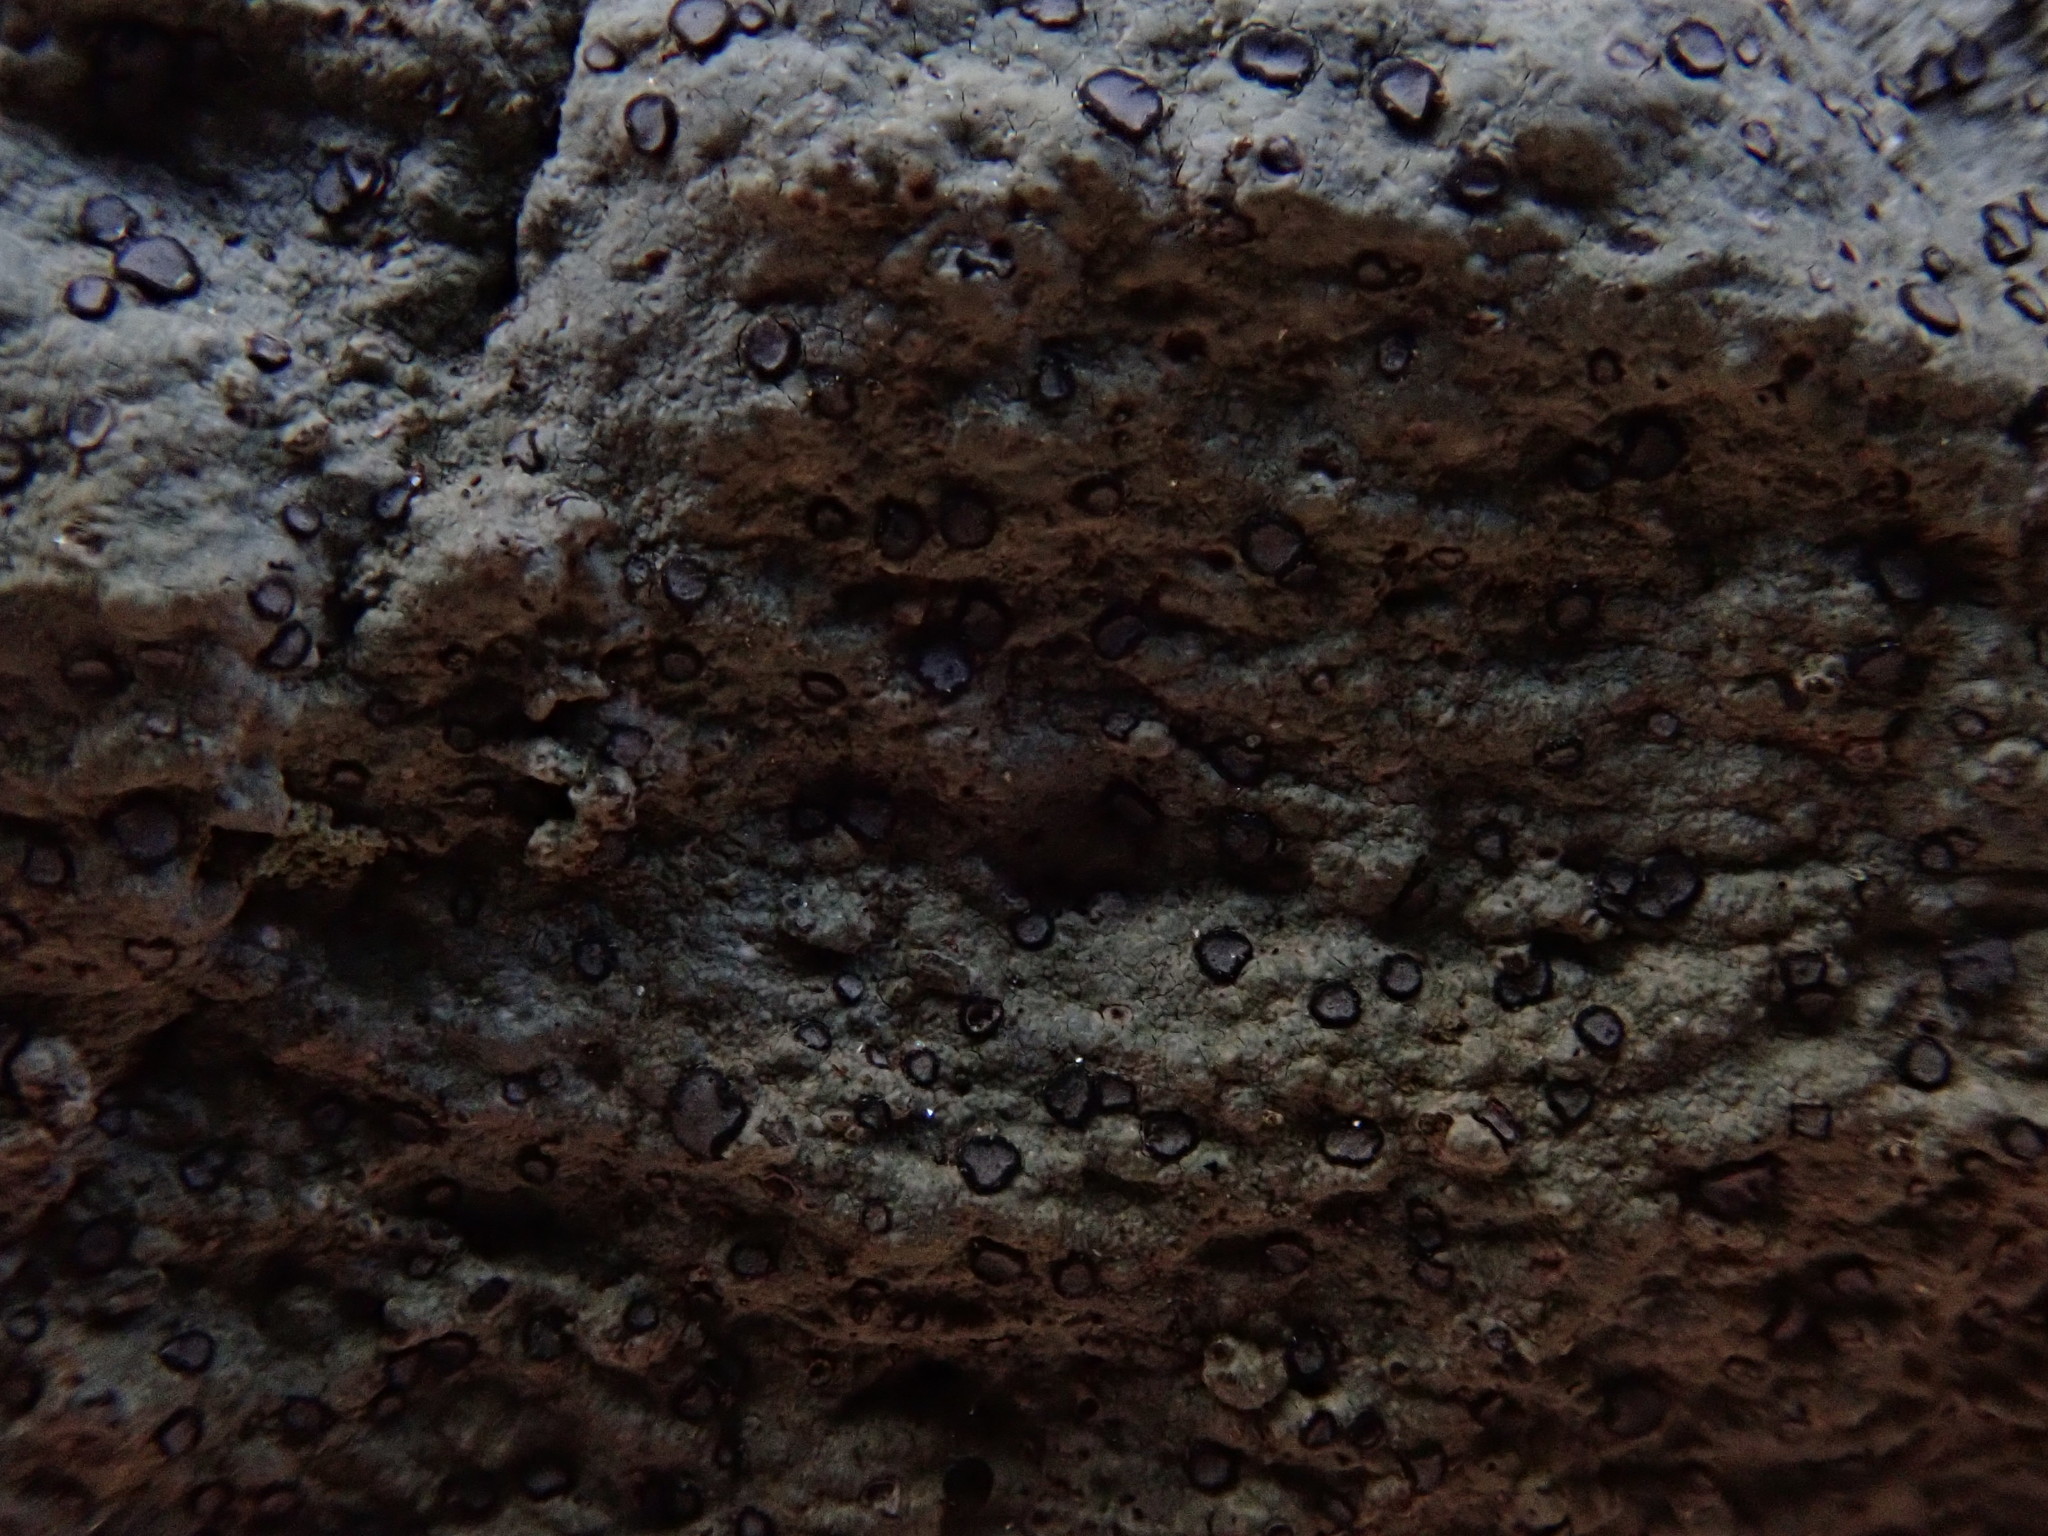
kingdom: Fungi
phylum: Ascomycota
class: Lecanoromycetes
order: Lecideales
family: Lecideaceae
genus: Porpidia
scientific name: Porpidia albocaerulescens
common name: Smokey-eyed boulder lichen
